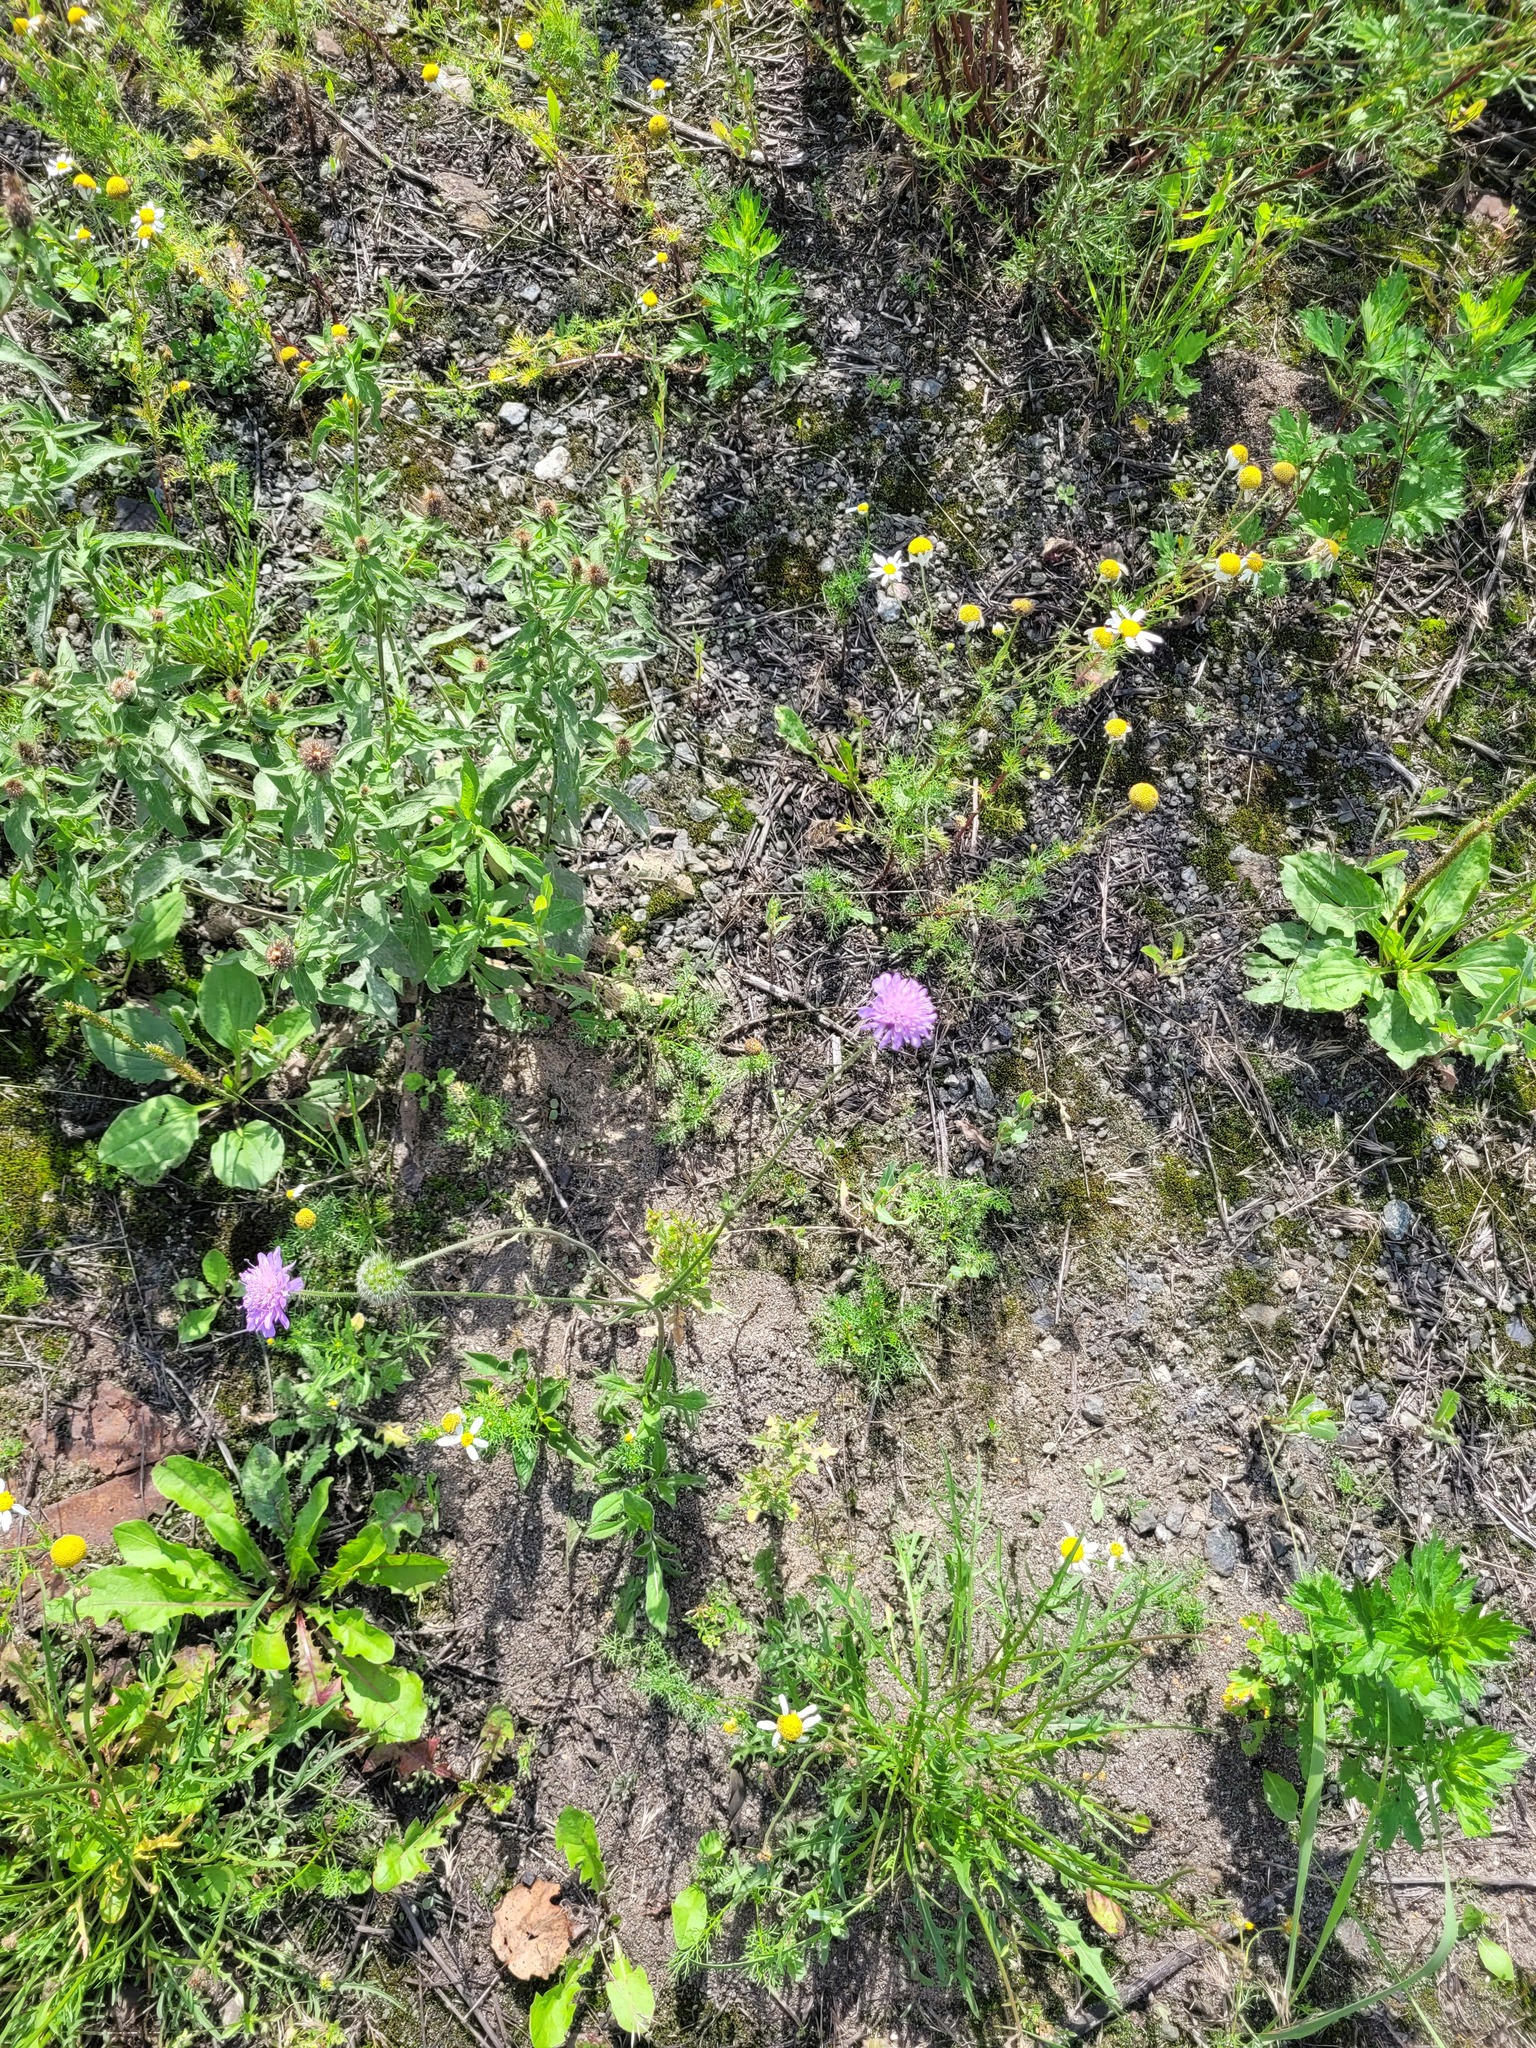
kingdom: Plantae
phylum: Tracheophyta
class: Magnoliopsida
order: Dipsacales
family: Caprifoliaceae
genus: Knautia
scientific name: Knautia arvensis
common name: Field scabiosa
